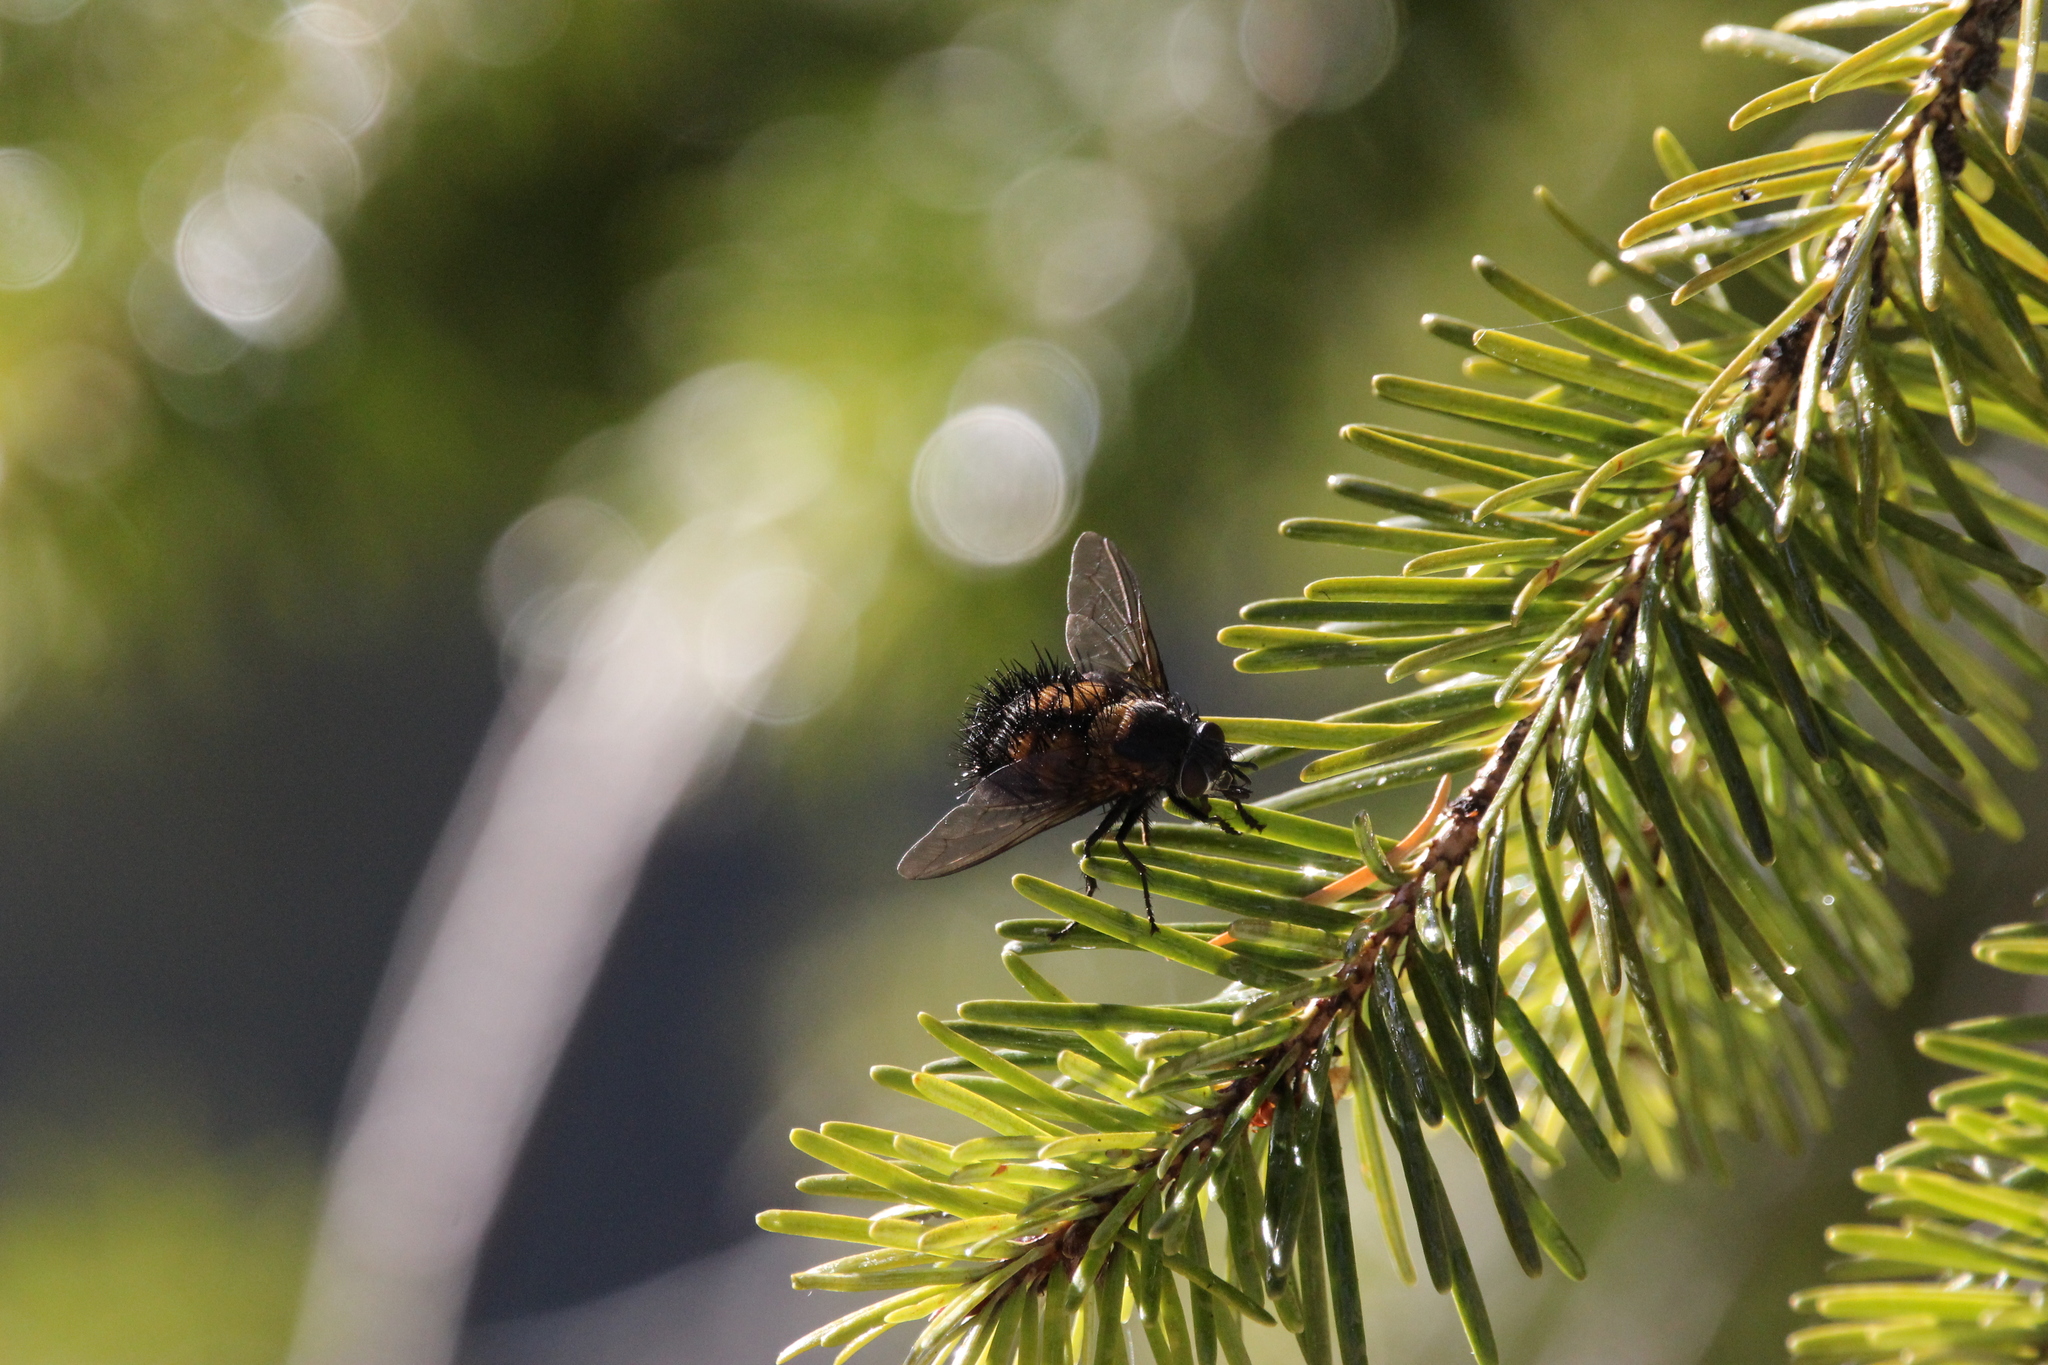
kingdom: Animalia
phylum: Arthropoda
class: Insecta
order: Diptera
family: Tachinidae
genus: Paradejeania
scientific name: Paradejeania rutilioides
